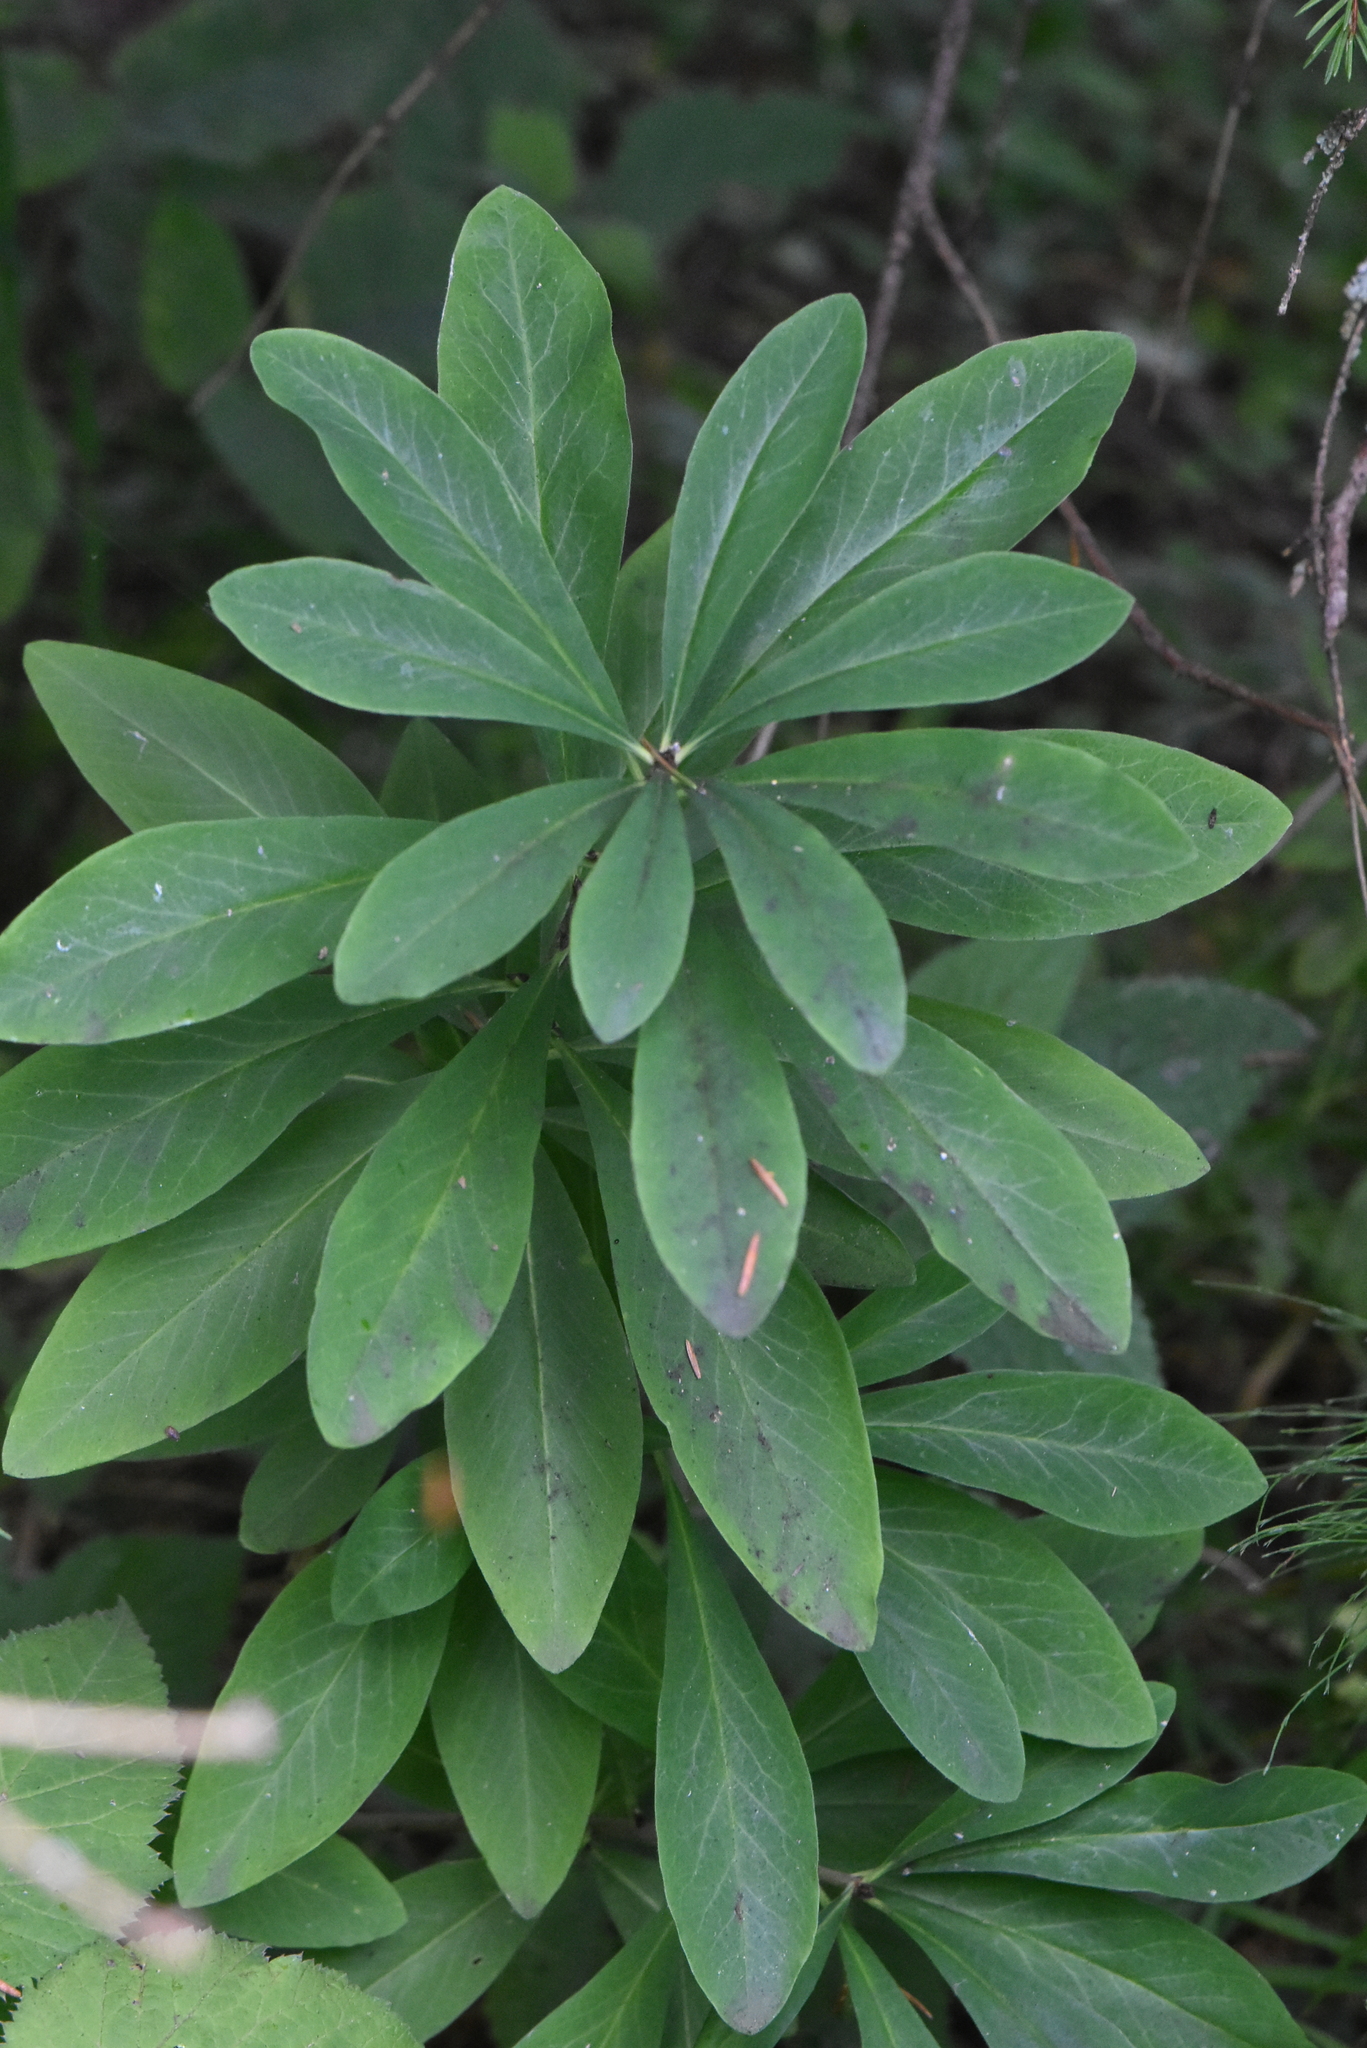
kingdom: Plantae
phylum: Tracheophyta
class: Magnoliopsida
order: Malvales
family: Thymelaeaceae
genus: Daphne
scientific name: Daphne mezereum
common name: Mezereon
